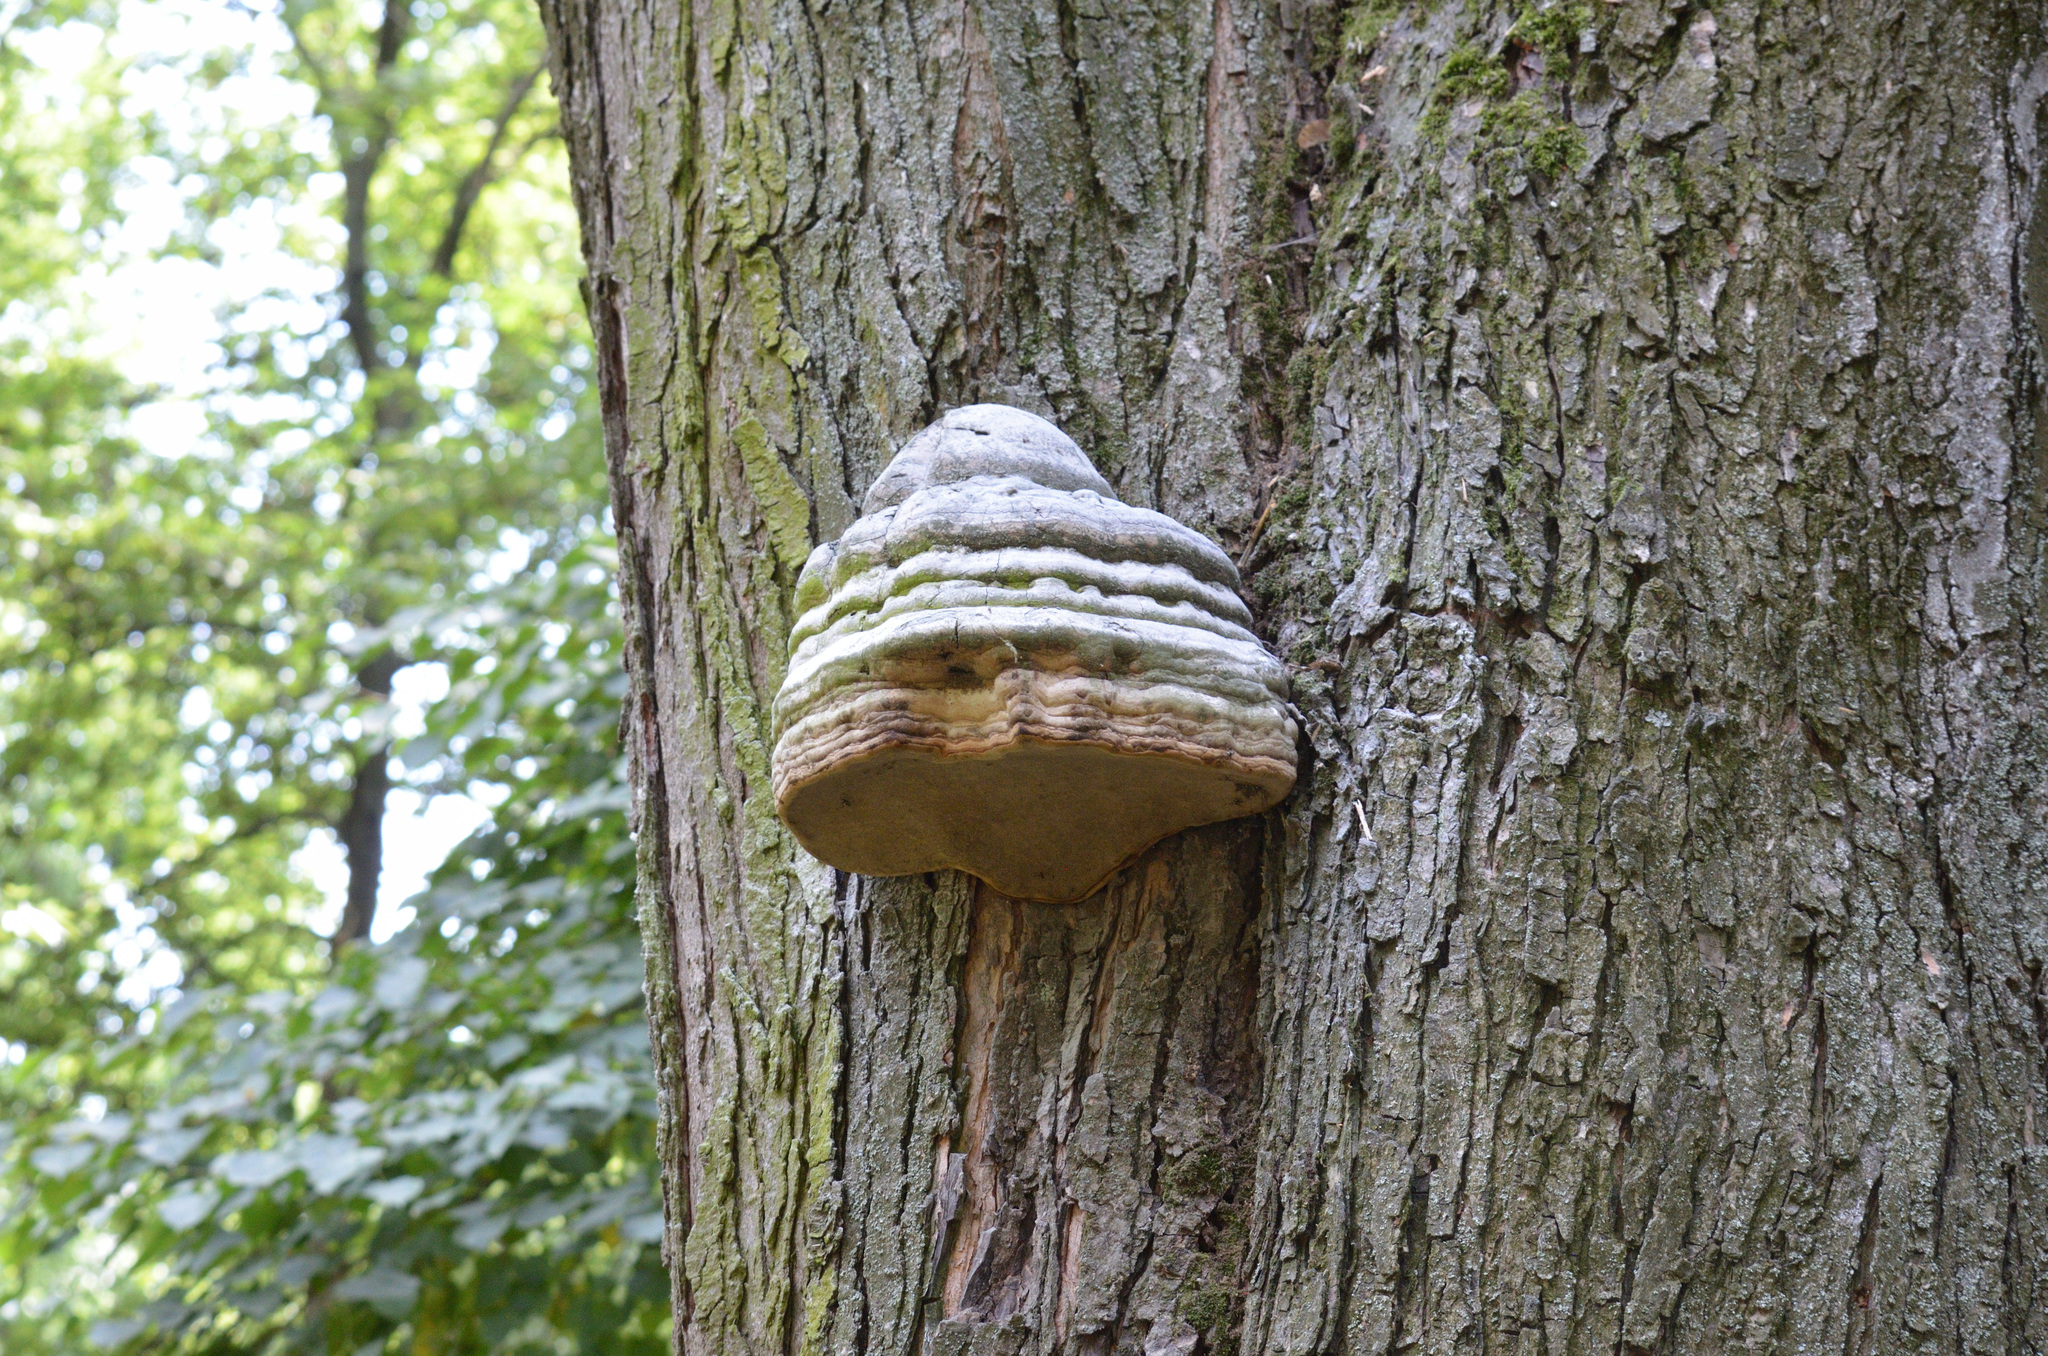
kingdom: Fungi
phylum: Basidiomycota
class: Agaricomycetes
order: Polyporales
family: Polyporaceae
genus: Fomes
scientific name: Fomes fomentarius
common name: Hoof fungus
